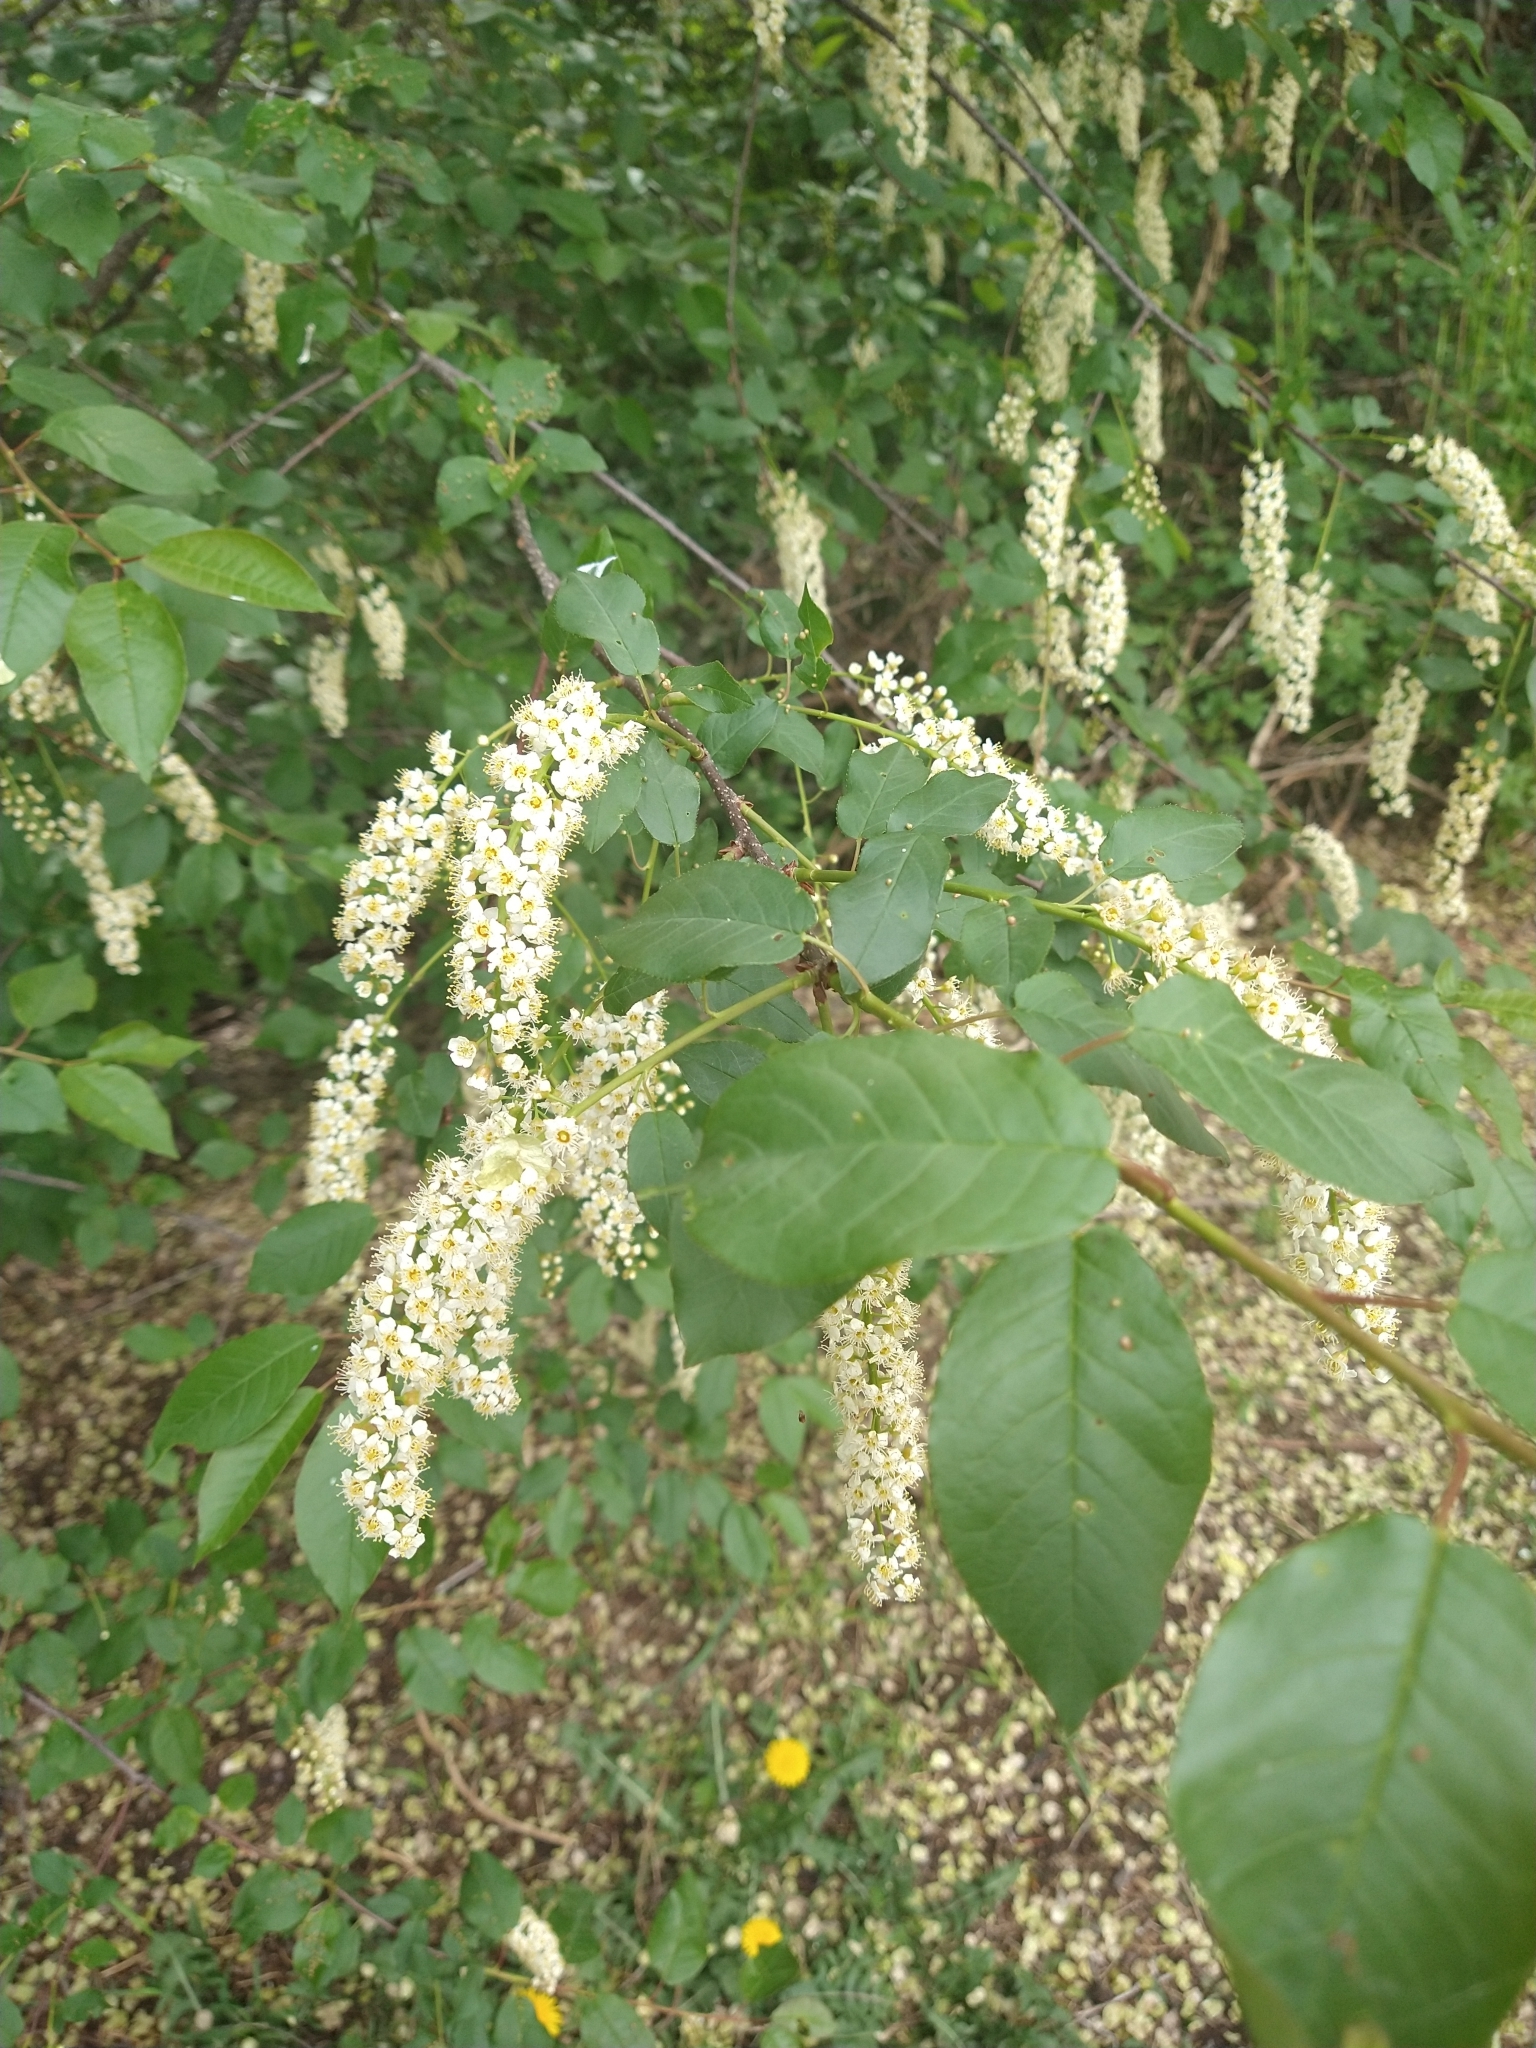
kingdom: Plantae
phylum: Tracheophyta
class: Magnoliopsida
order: Rosales
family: Rosaceae
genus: Prunus
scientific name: Prunus virginiana
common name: Chokecherry
